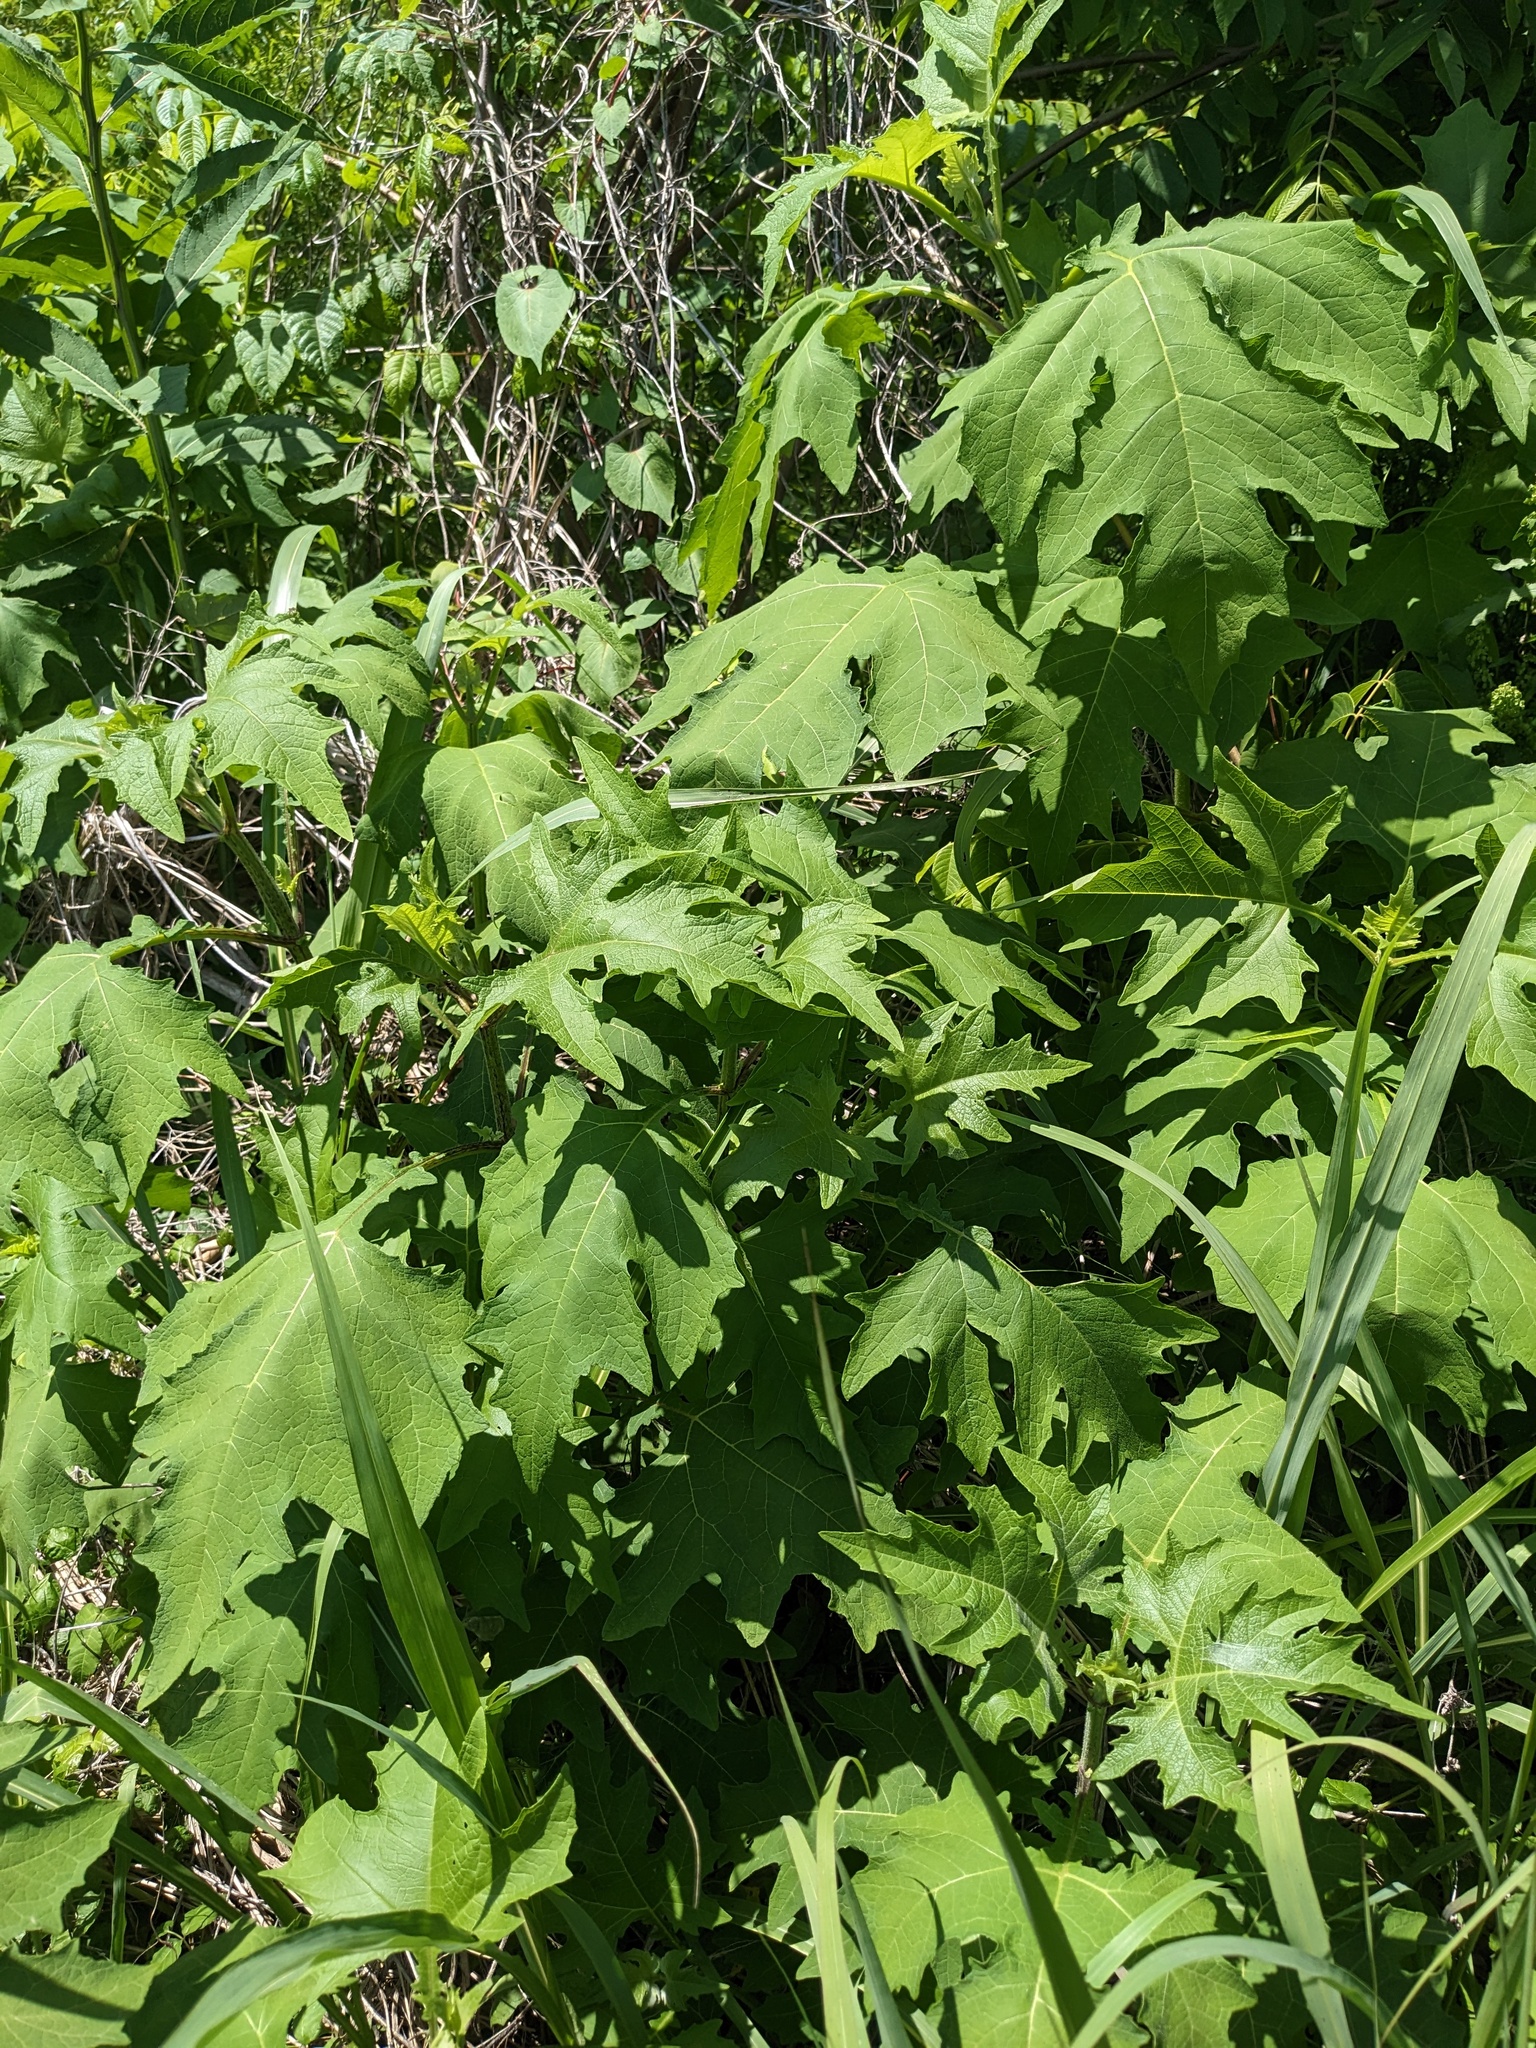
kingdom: Plantae
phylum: Tracheophyta
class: Magnoliopsida
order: Asterales
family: Asteraceae
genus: Smallanthus
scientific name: Smallanthus uvedalia
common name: Bear's-foot
